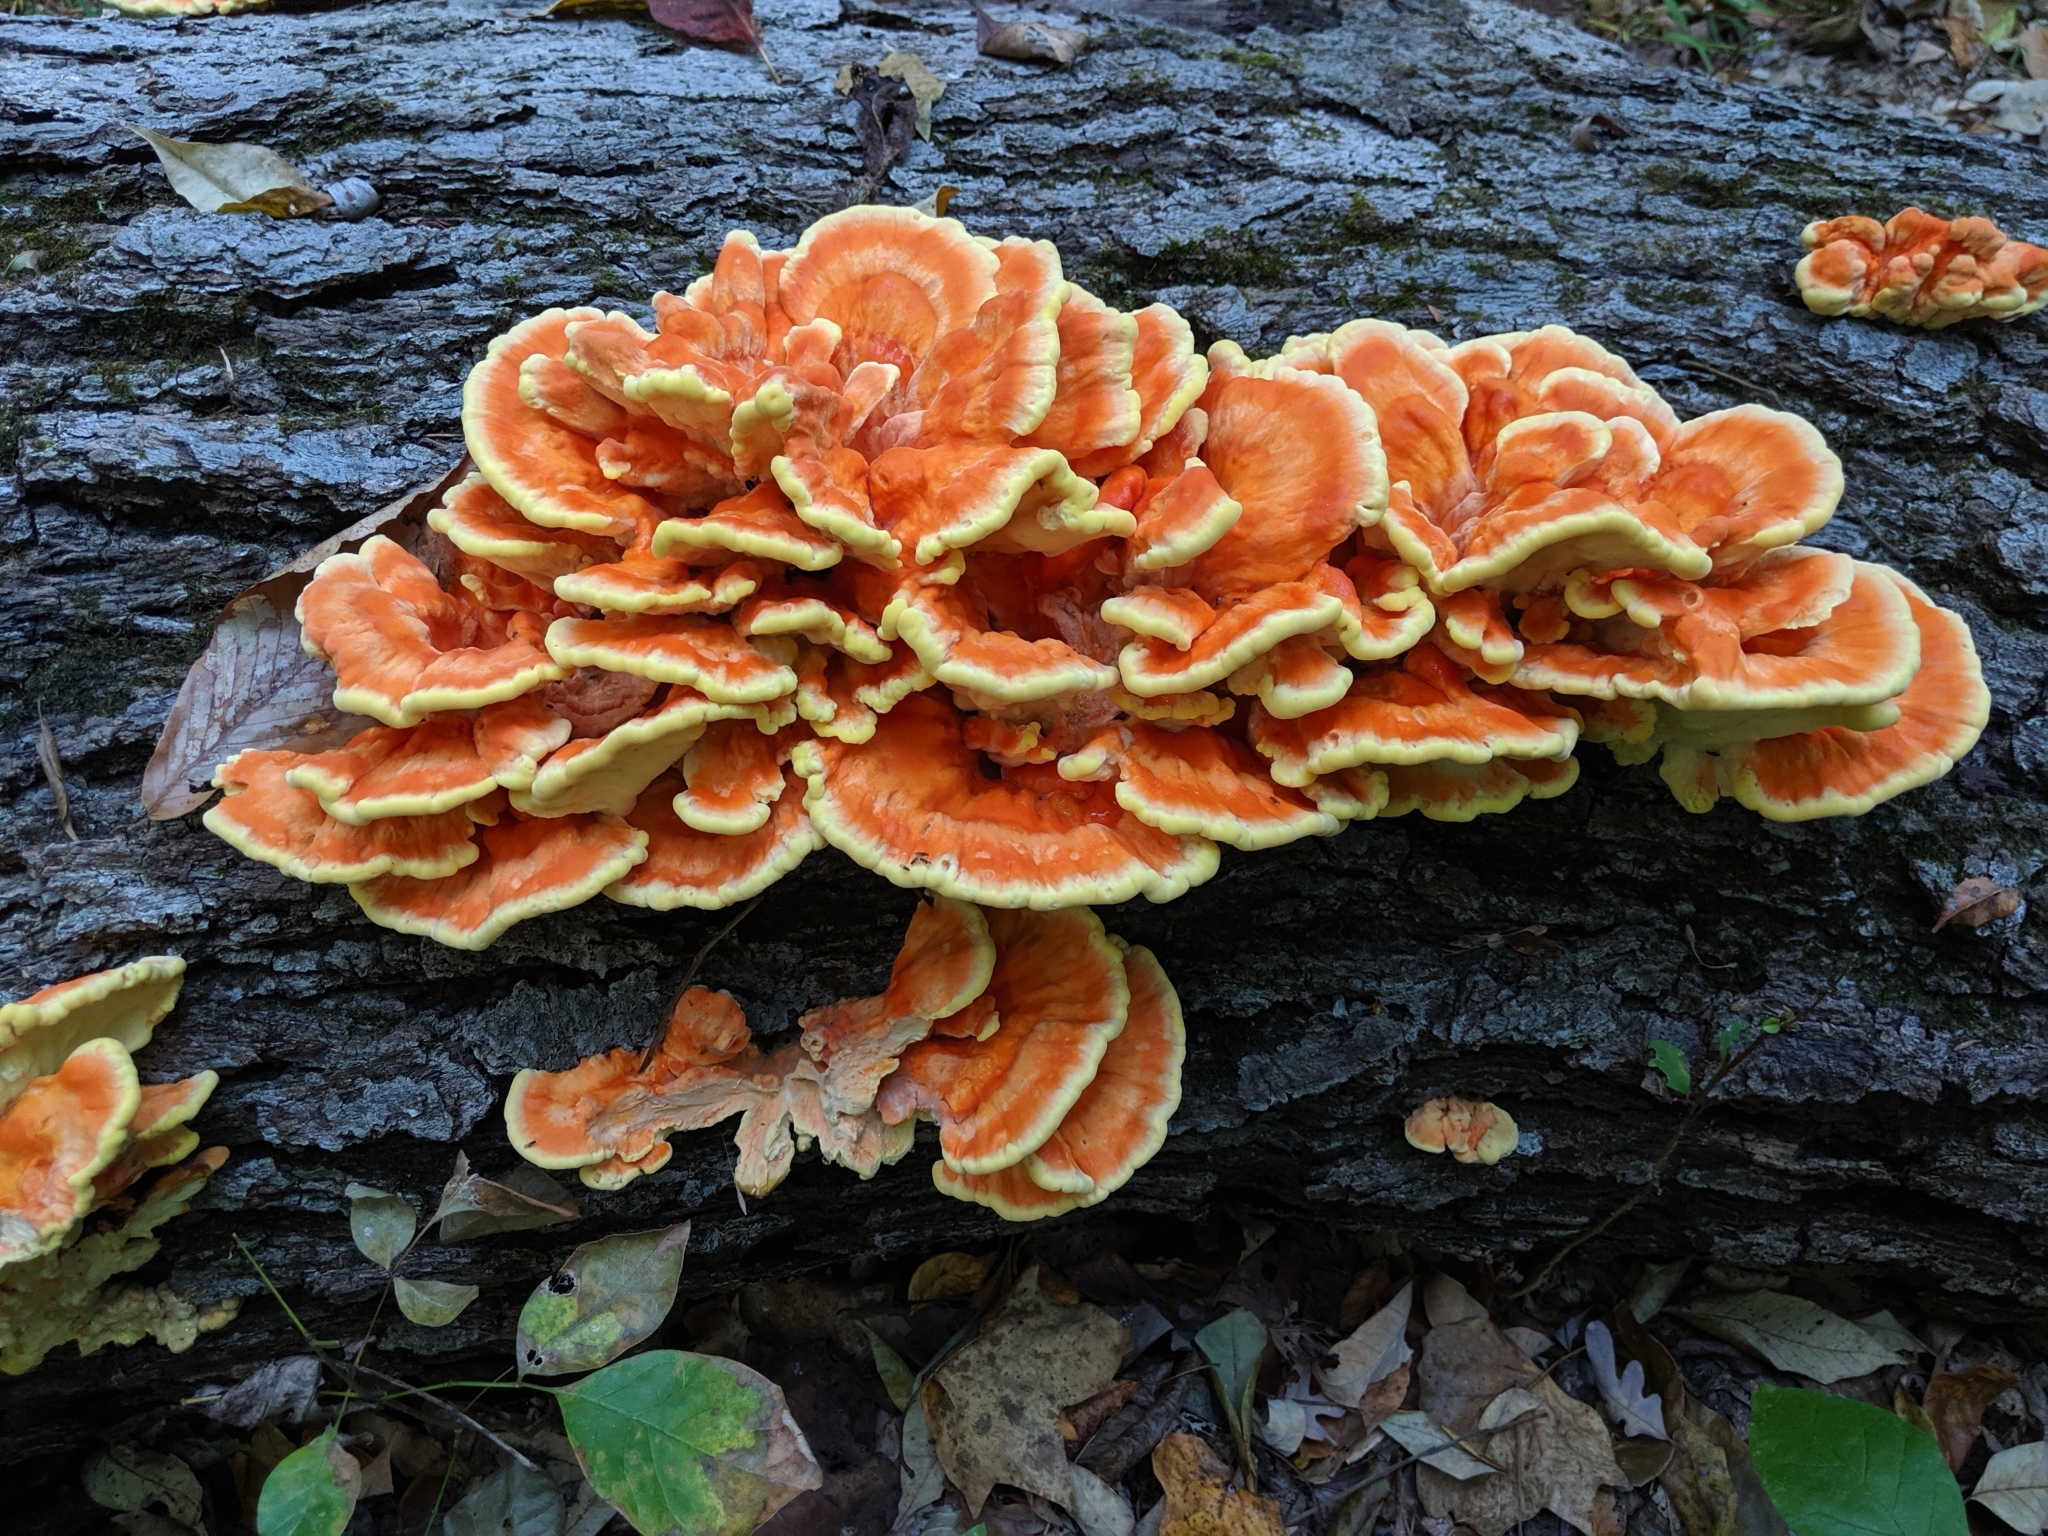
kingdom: Fungi
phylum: Basidiomycota
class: Agaricomycetes
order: Polyporales
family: Laetiporaceae
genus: Laetiporus
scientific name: Laetiporus sulphureus
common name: Chicken of the woods
